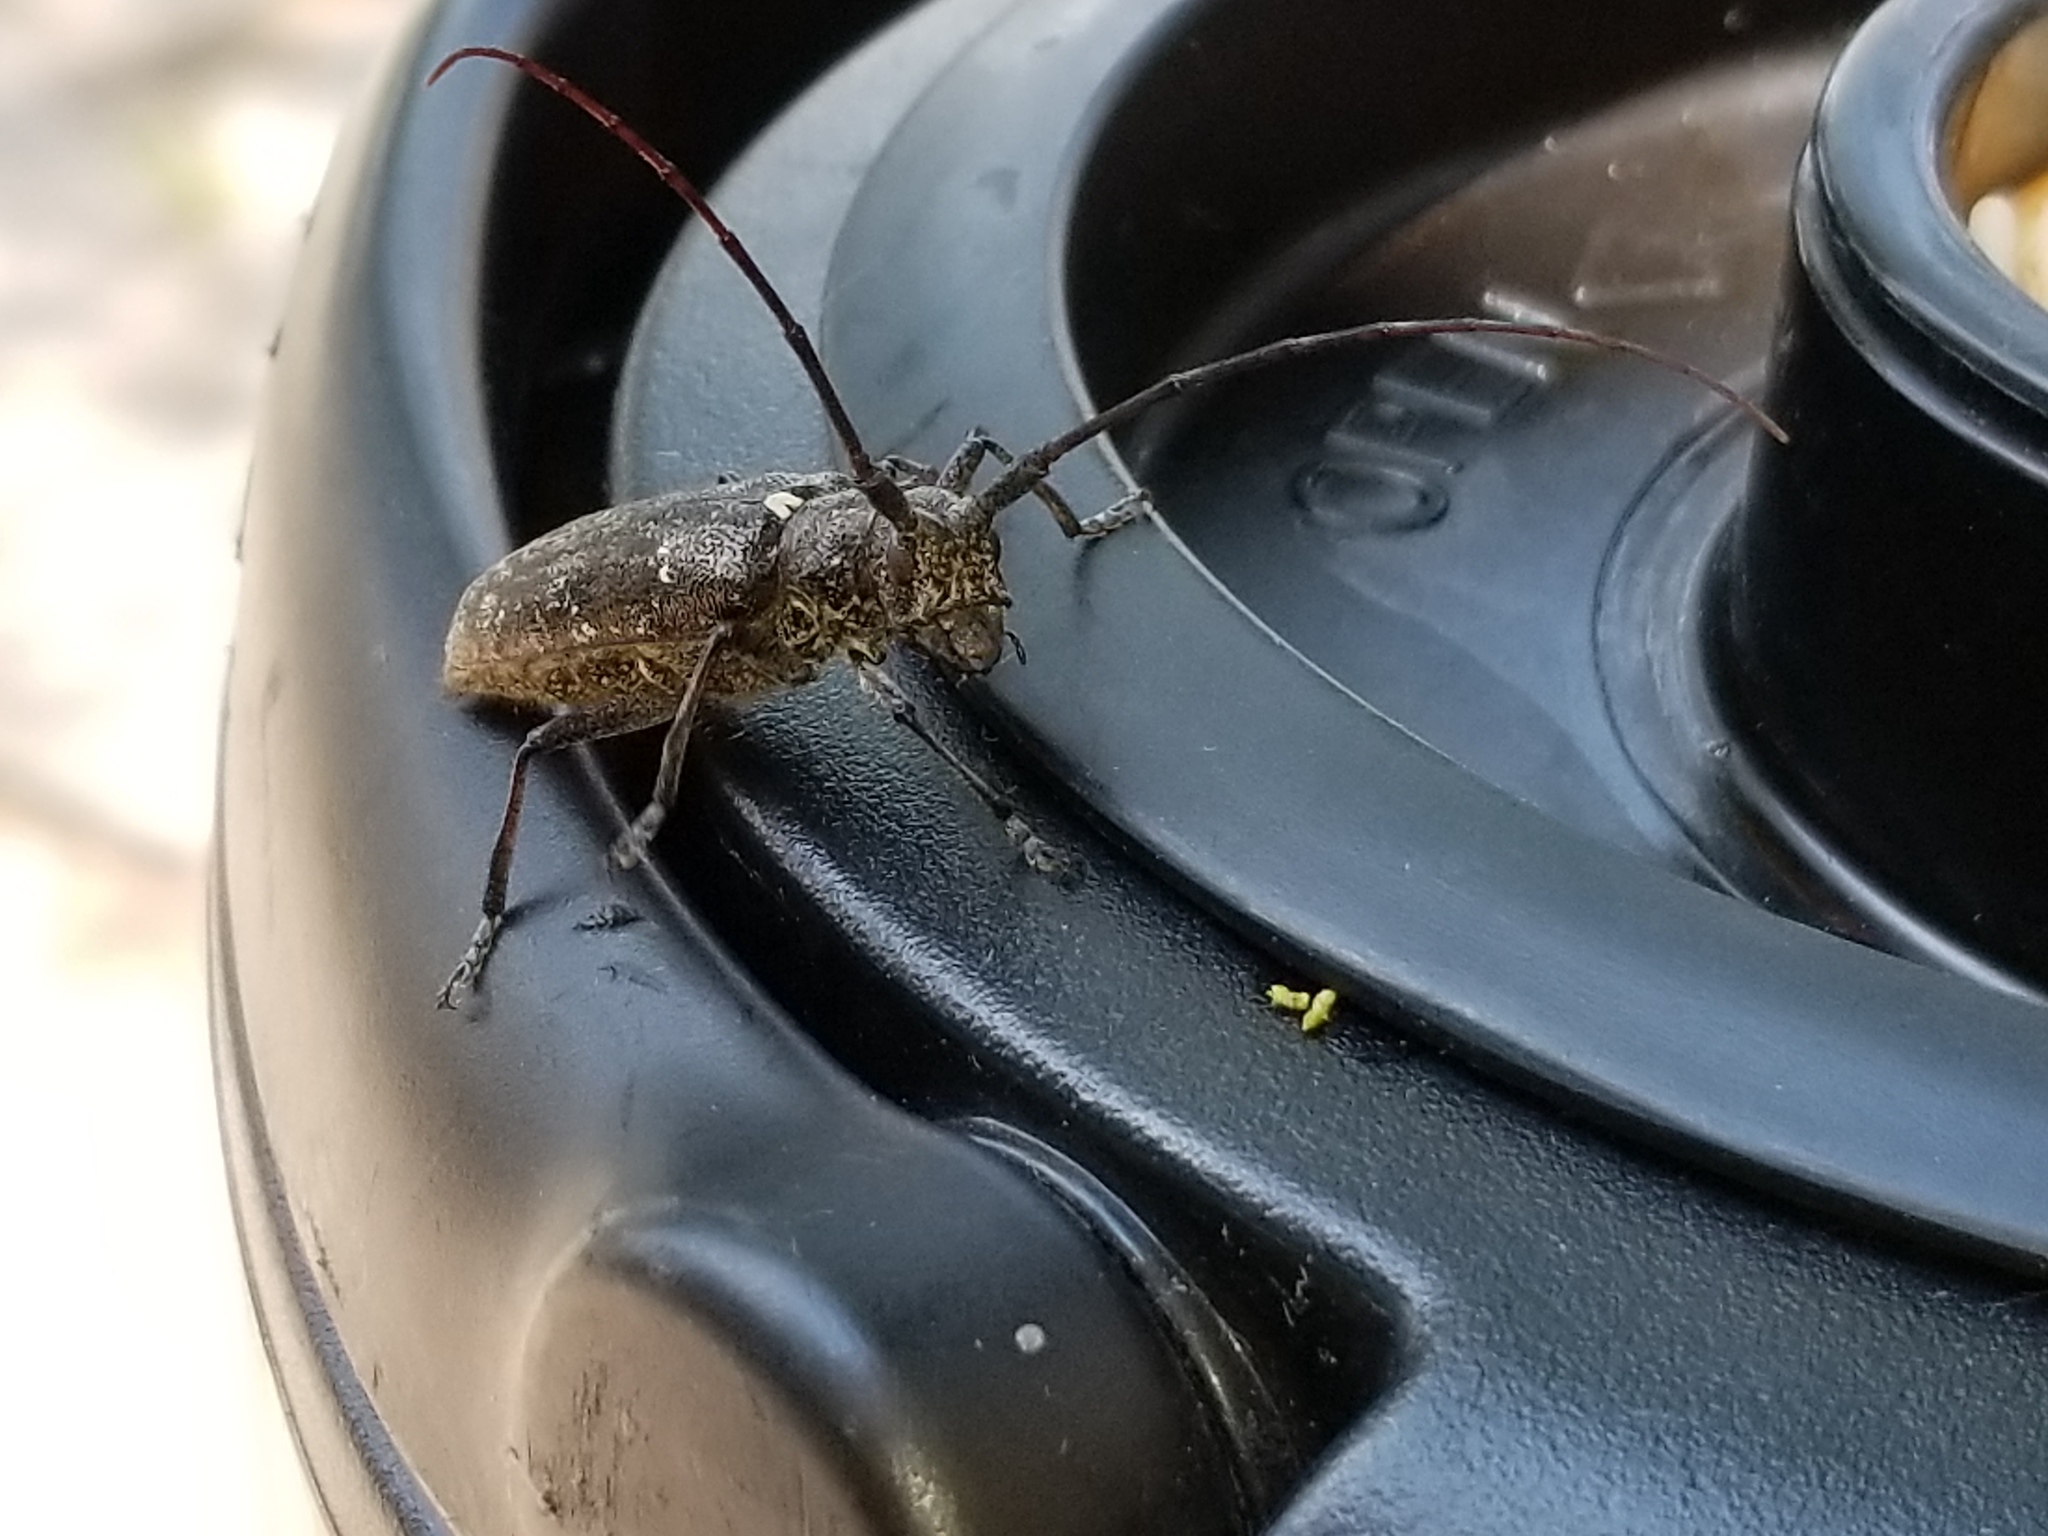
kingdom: Animalia
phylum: Arthropoda
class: Insecta
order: Coleoptera
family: Cerambycidae
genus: Monochamus
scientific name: Monochamus scutellatus
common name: White-spotted sawyer beetle
